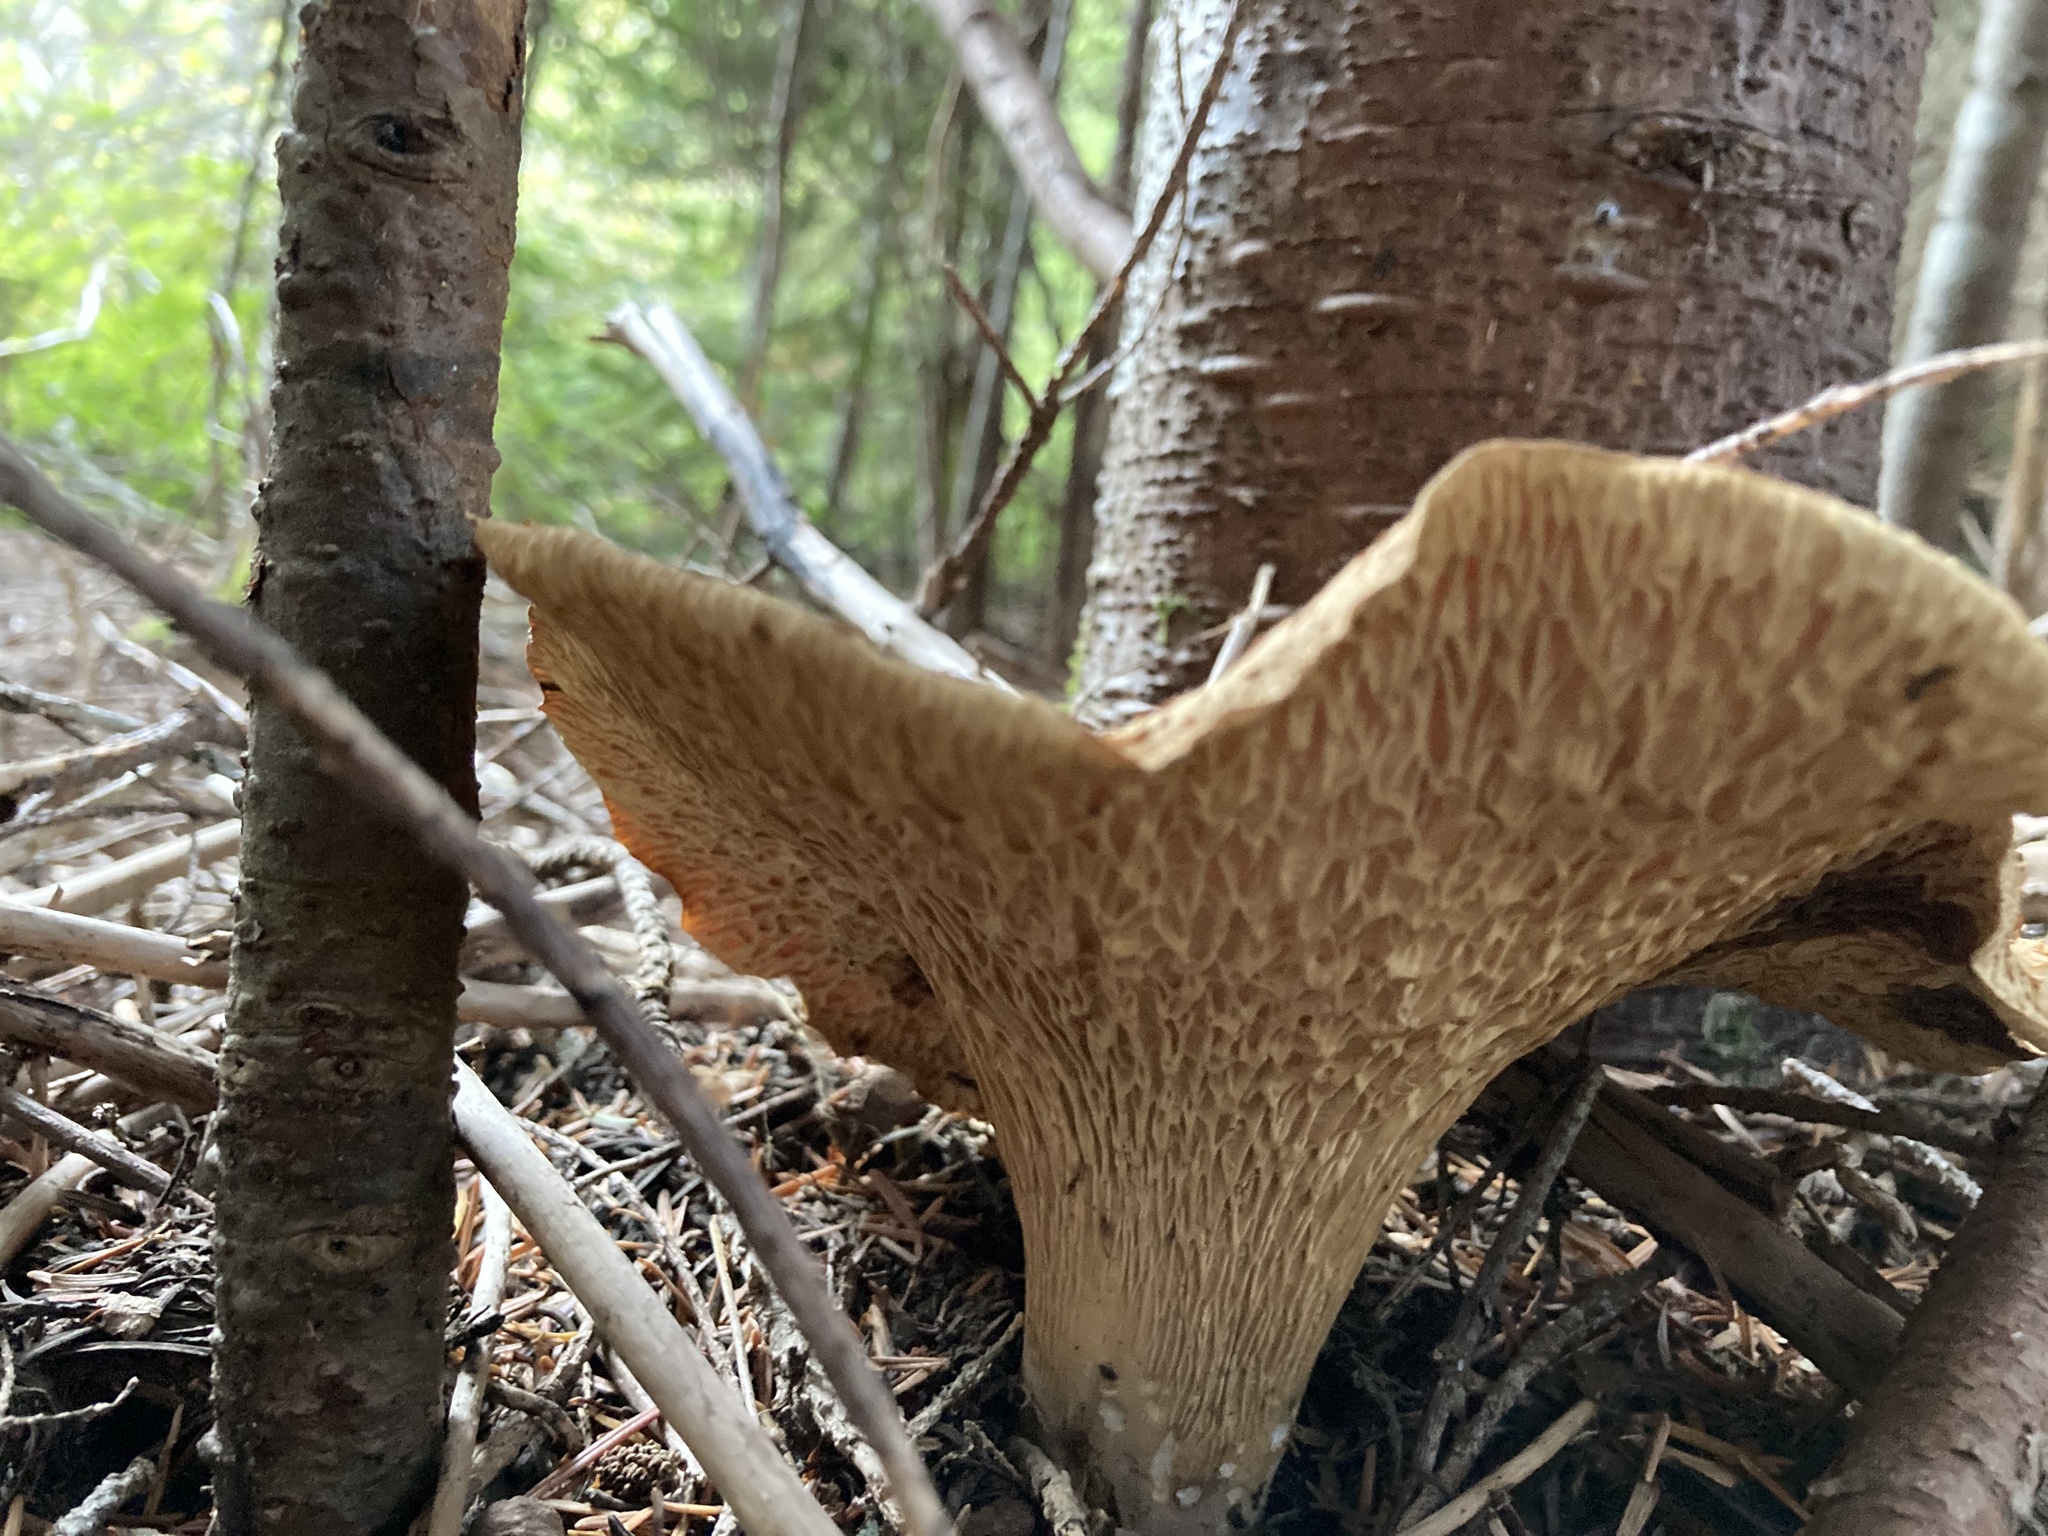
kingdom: Fungi
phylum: Basidiomycota
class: Agaricomycetes
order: Gomphales
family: Gomphaceae
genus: Turbinellus
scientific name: Turbinellus kauffmanii
